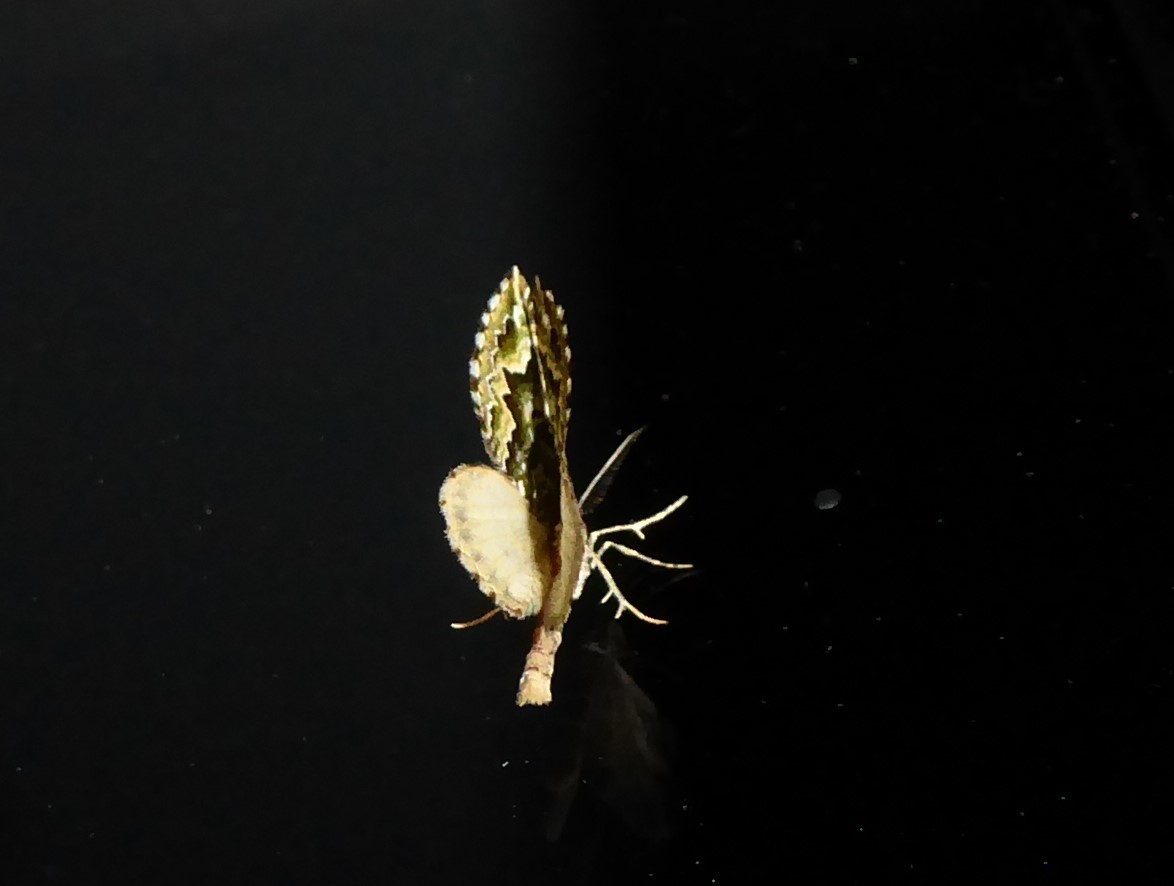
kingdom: Animalia
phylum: Arthropoda
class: Insecta
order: Lepidoptera
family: Geometridae
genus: Asaphodes
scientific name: Asaphodes beata
